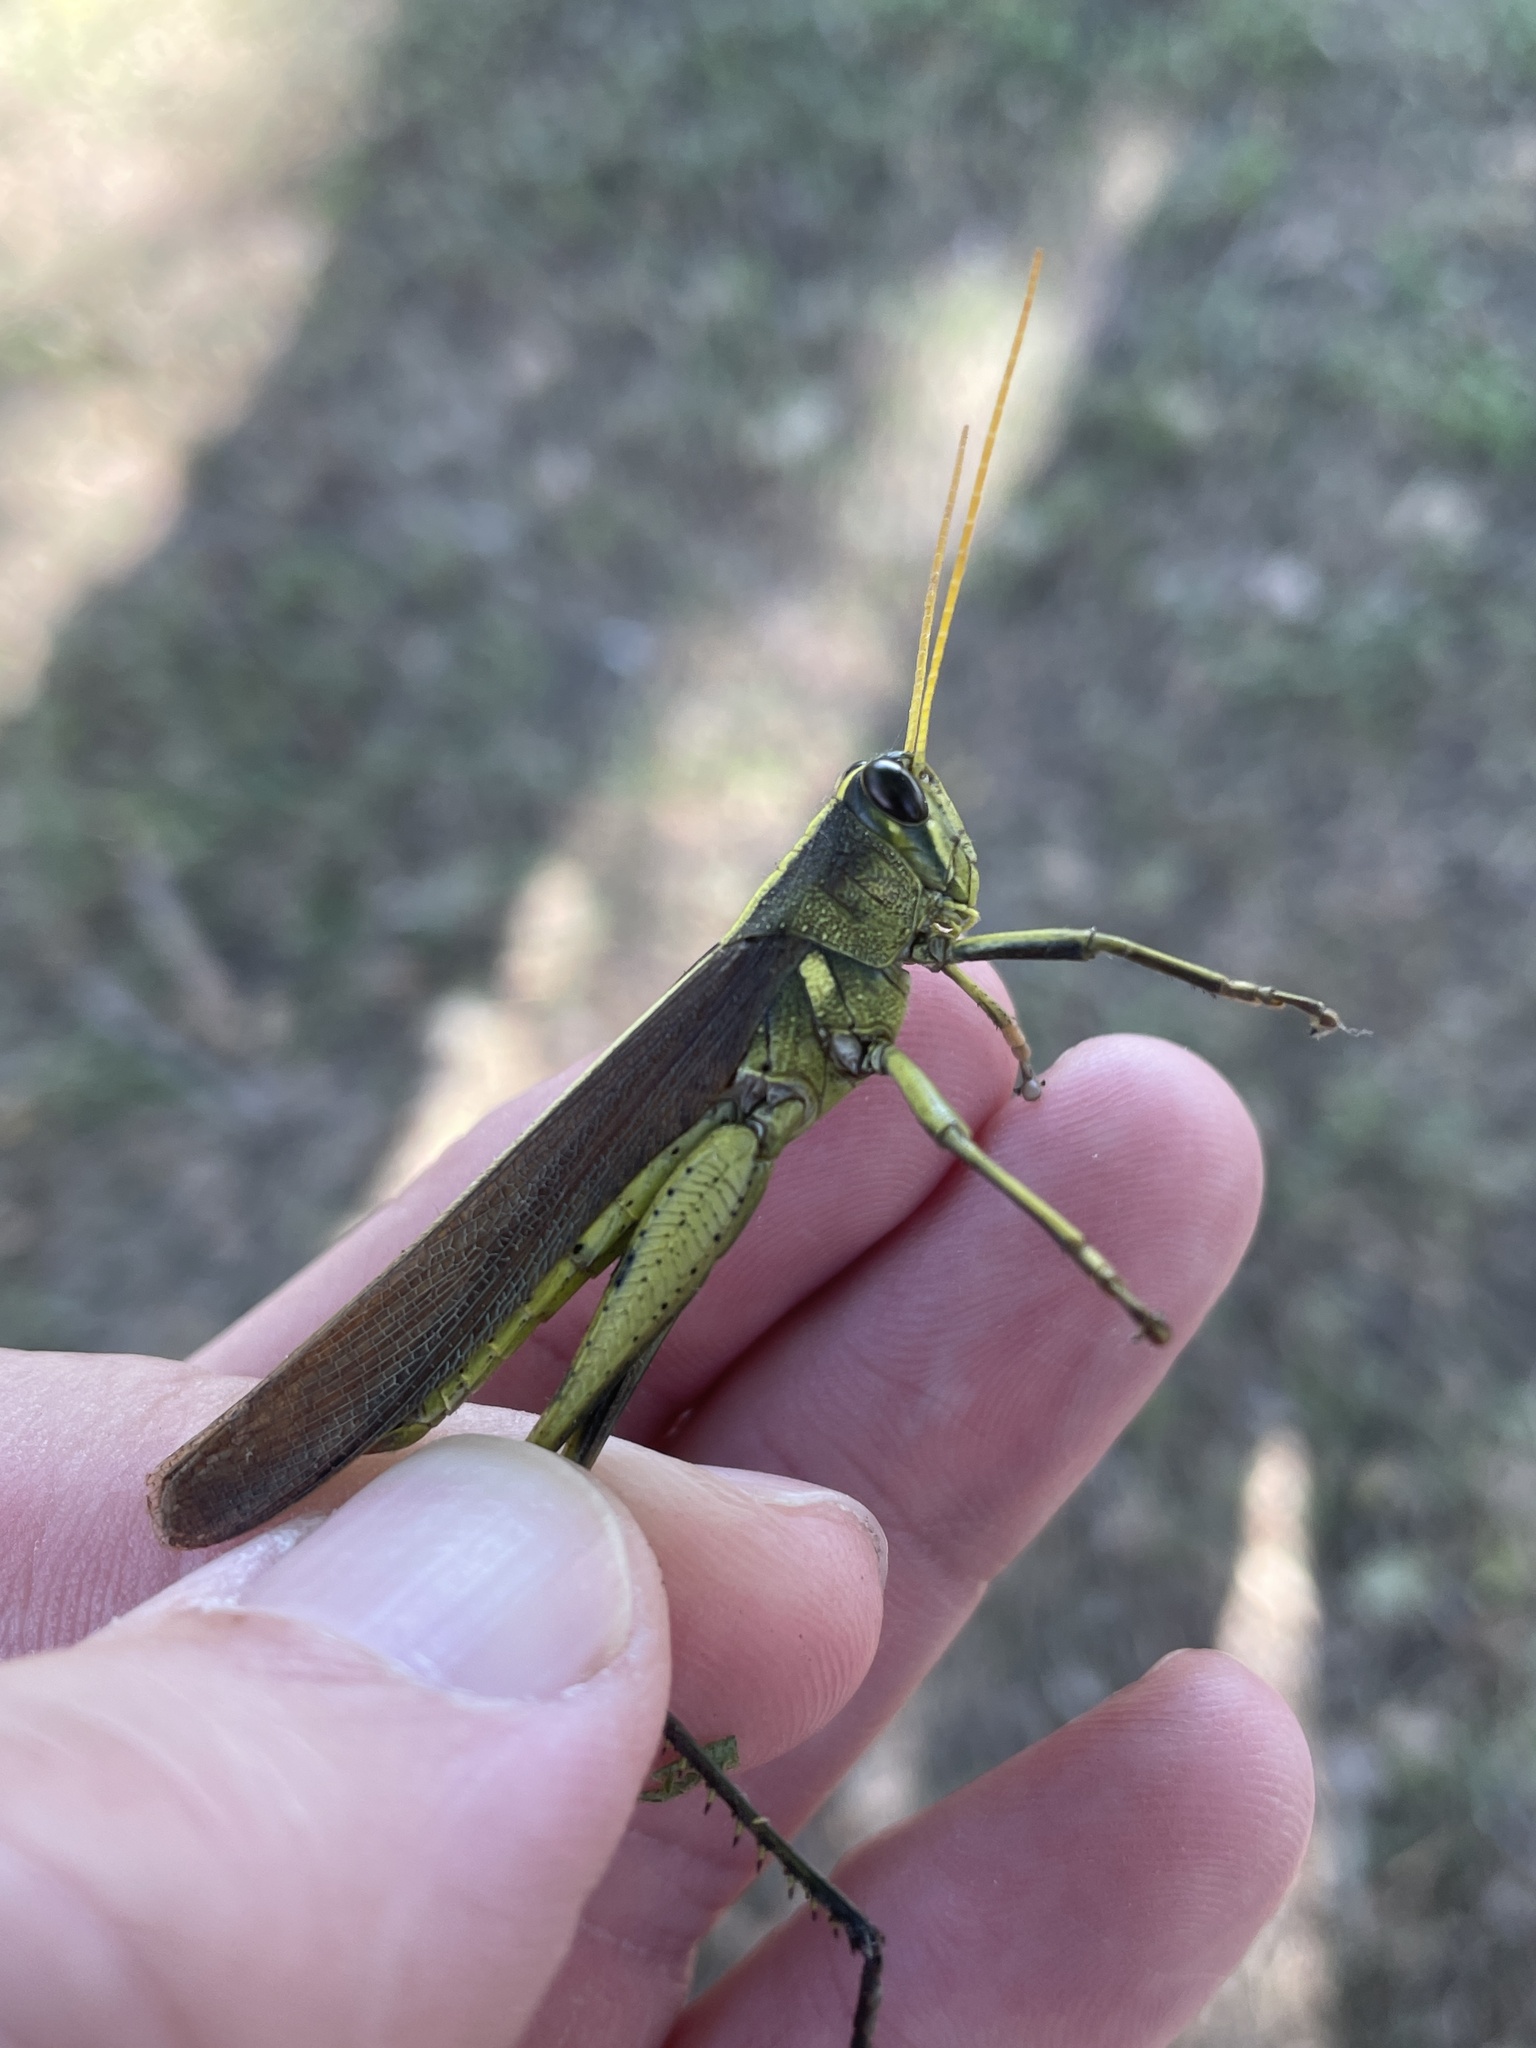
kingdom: Animalia
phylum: Arthropoda
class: Insecta
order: Orthoptera
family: Acrididae
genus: Schistocerca
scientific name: Schistocerca obscura
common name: Obscure bird grasshopper
